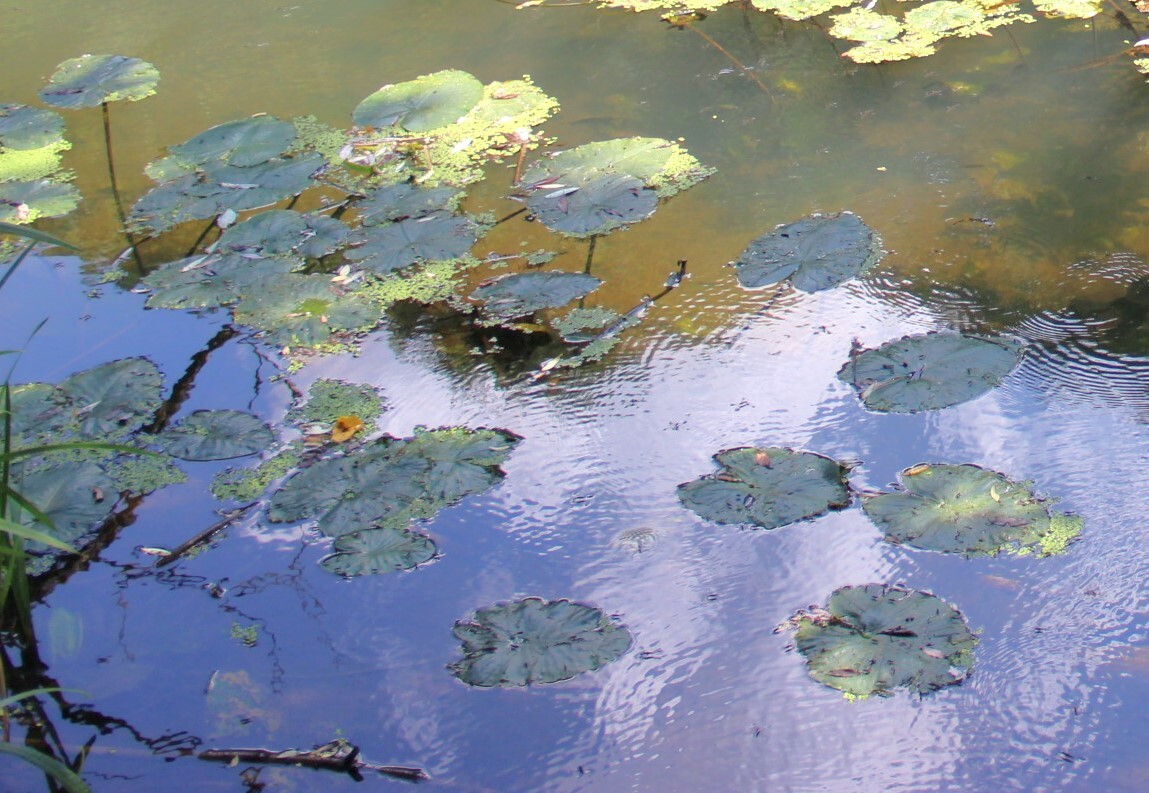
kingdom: Plantae
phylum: Tracheophyta
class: Magnoliopsida
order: Nymphaeales
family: Nymphaeaceae
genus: Nuphar
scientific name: Nuphar lutea
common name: Yellow water-lily
